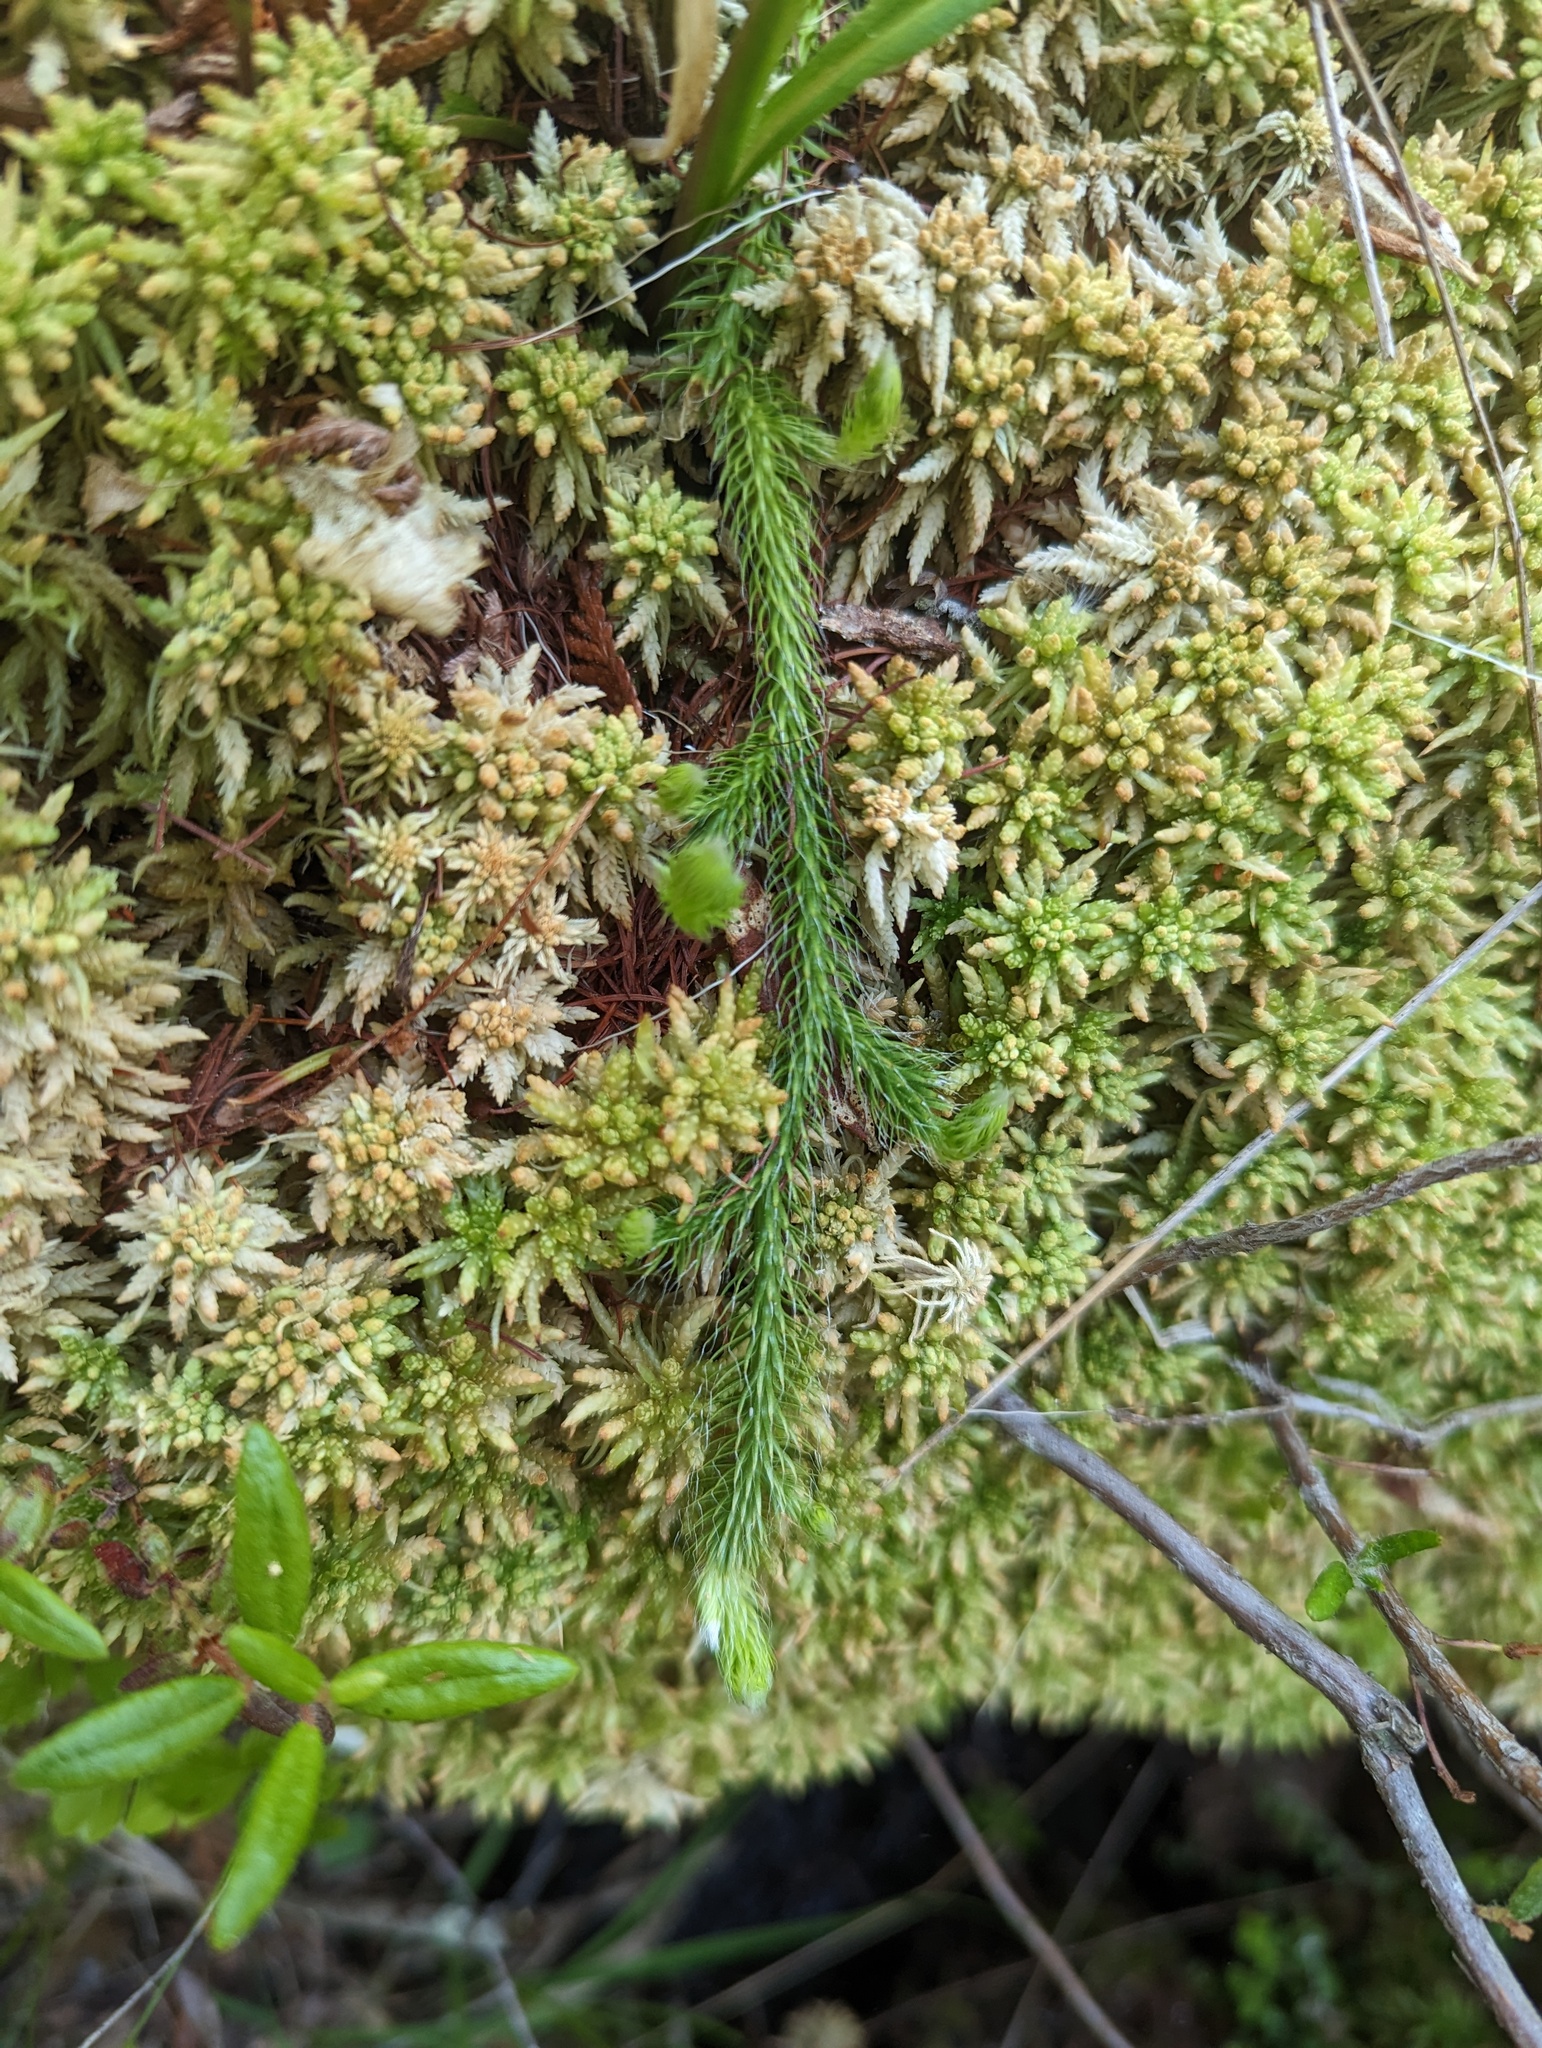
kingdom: Plantae
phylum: Tracheophyta
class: Lycopodiopsida
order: Lycopodiales
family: Lycopodiaceae
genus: Lycopodium
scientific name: Lycopodium clavatum
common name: Stag's-horn clubmoss
